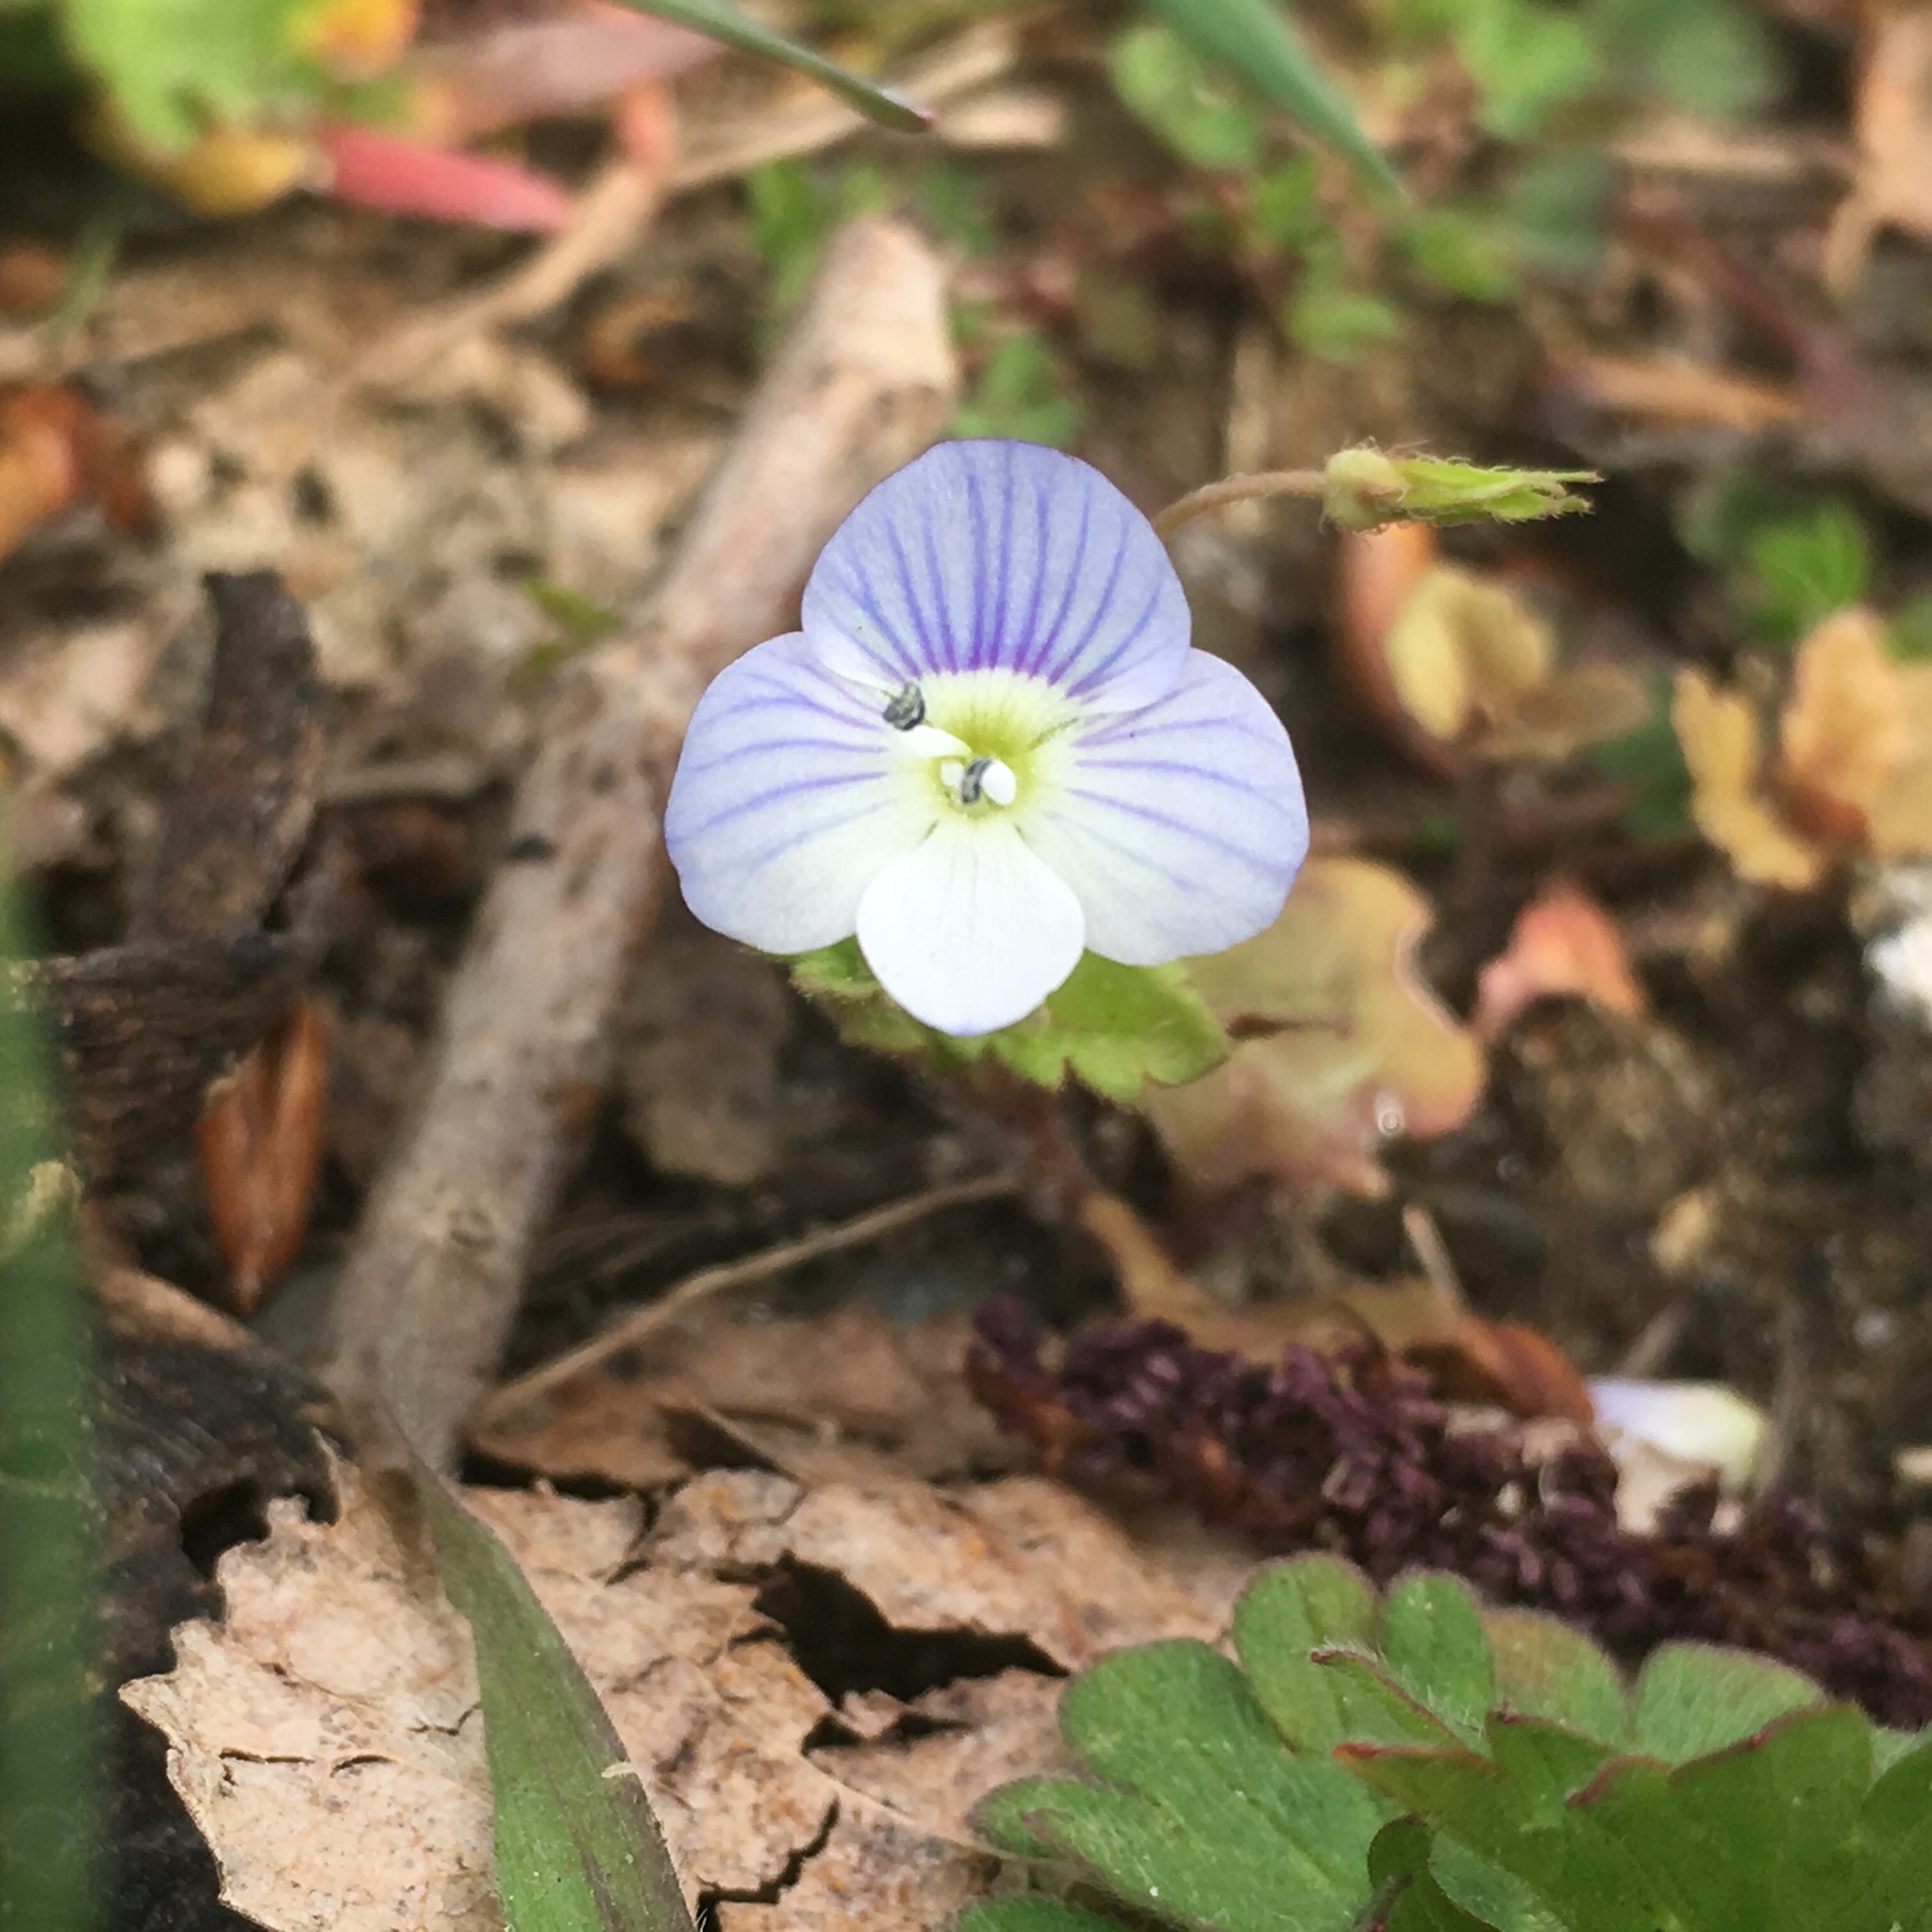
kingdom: Plantae
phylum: Tracheophyta
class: Magnoliopsida
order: Lamiales
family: Plantaginaceae
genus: Veronica
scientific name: Veronica persica
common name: Common field-speedwell
